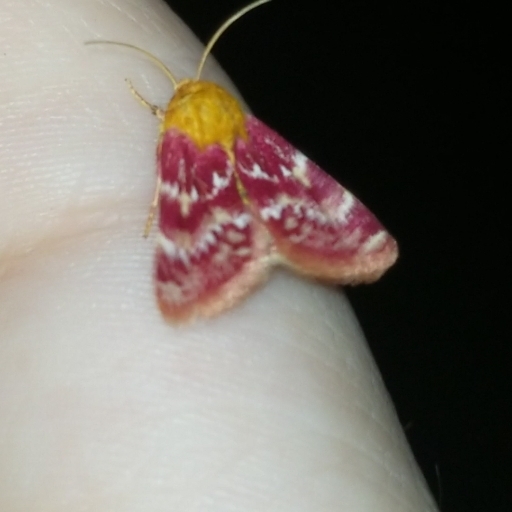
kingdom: Animalia
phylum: Arthropoda
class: Insecta
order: Lepidoptera
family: Noctuidae
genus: Schinia
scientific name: Schinia volupia
